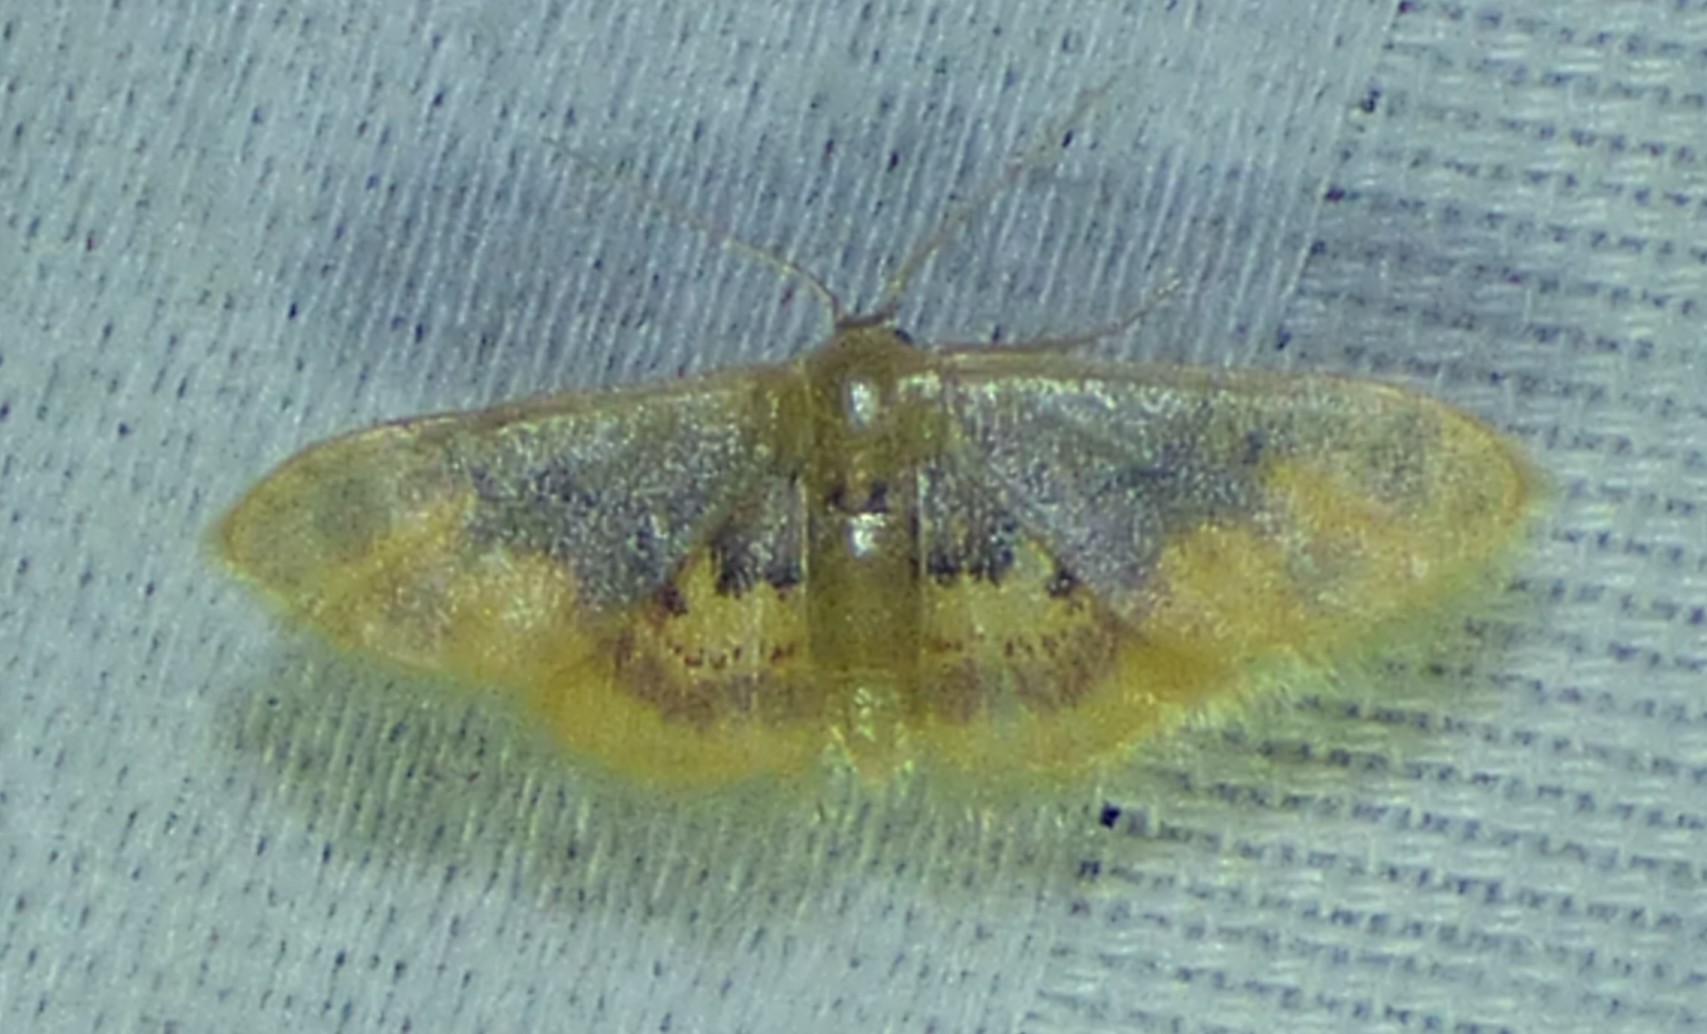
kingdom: Animalia
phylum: Arthropoda
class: Insecta
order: Lepidoptera
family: Geometridae
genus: Idaea
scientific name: Idaea scintillularia
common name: Diminutive wave
